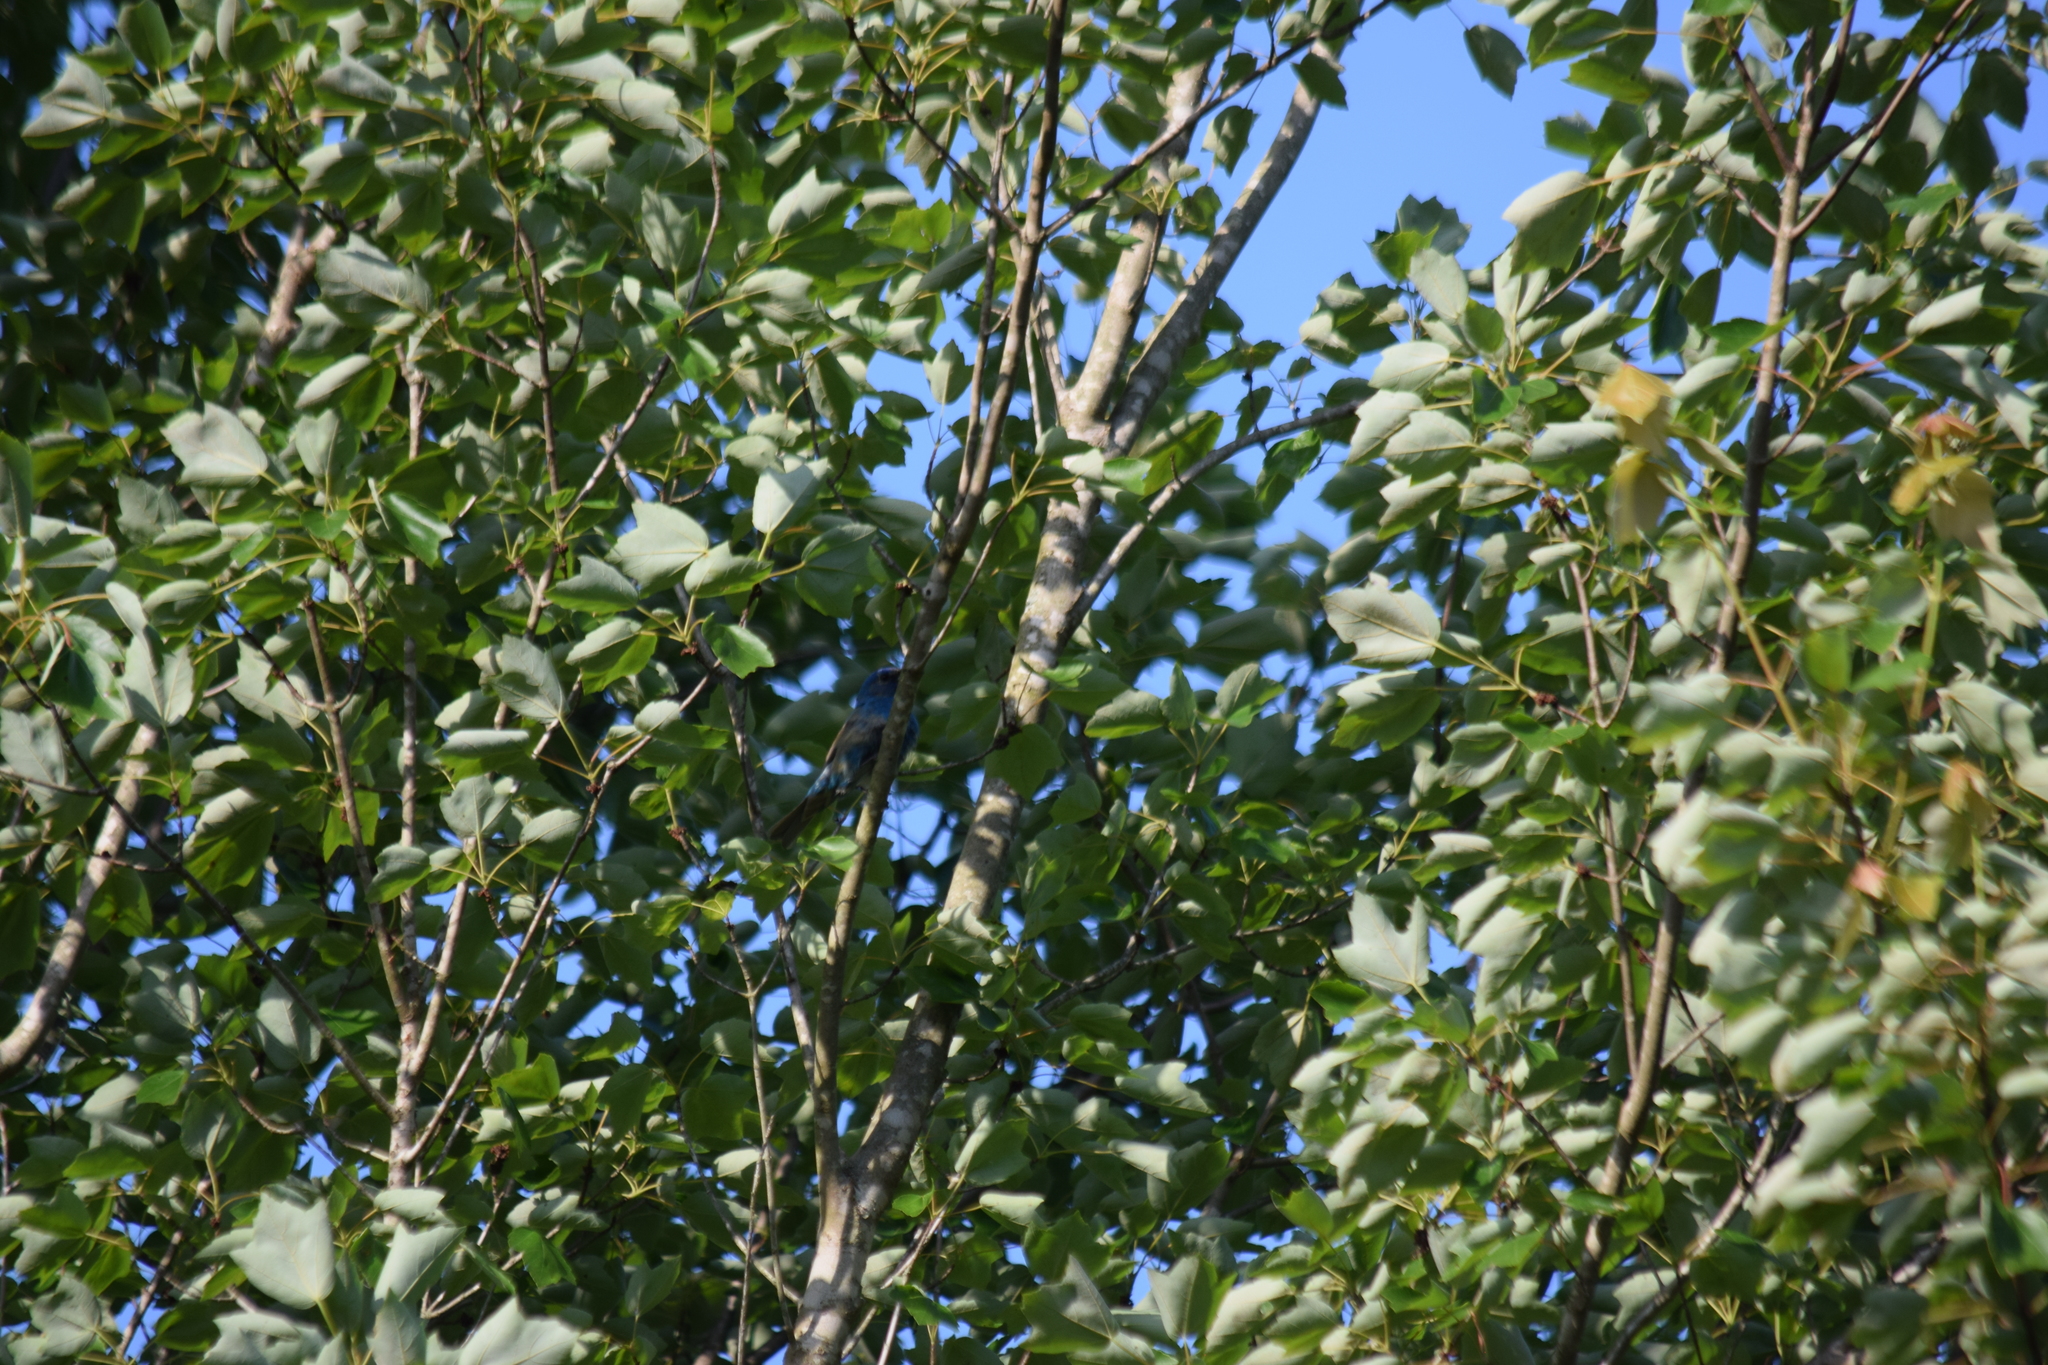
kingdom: Animalia
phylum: Chordata
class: Aves
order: Passeriformes
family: Cardinalidae
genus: Passerina
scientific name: Passerina cyanea
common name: Indigo bunting
